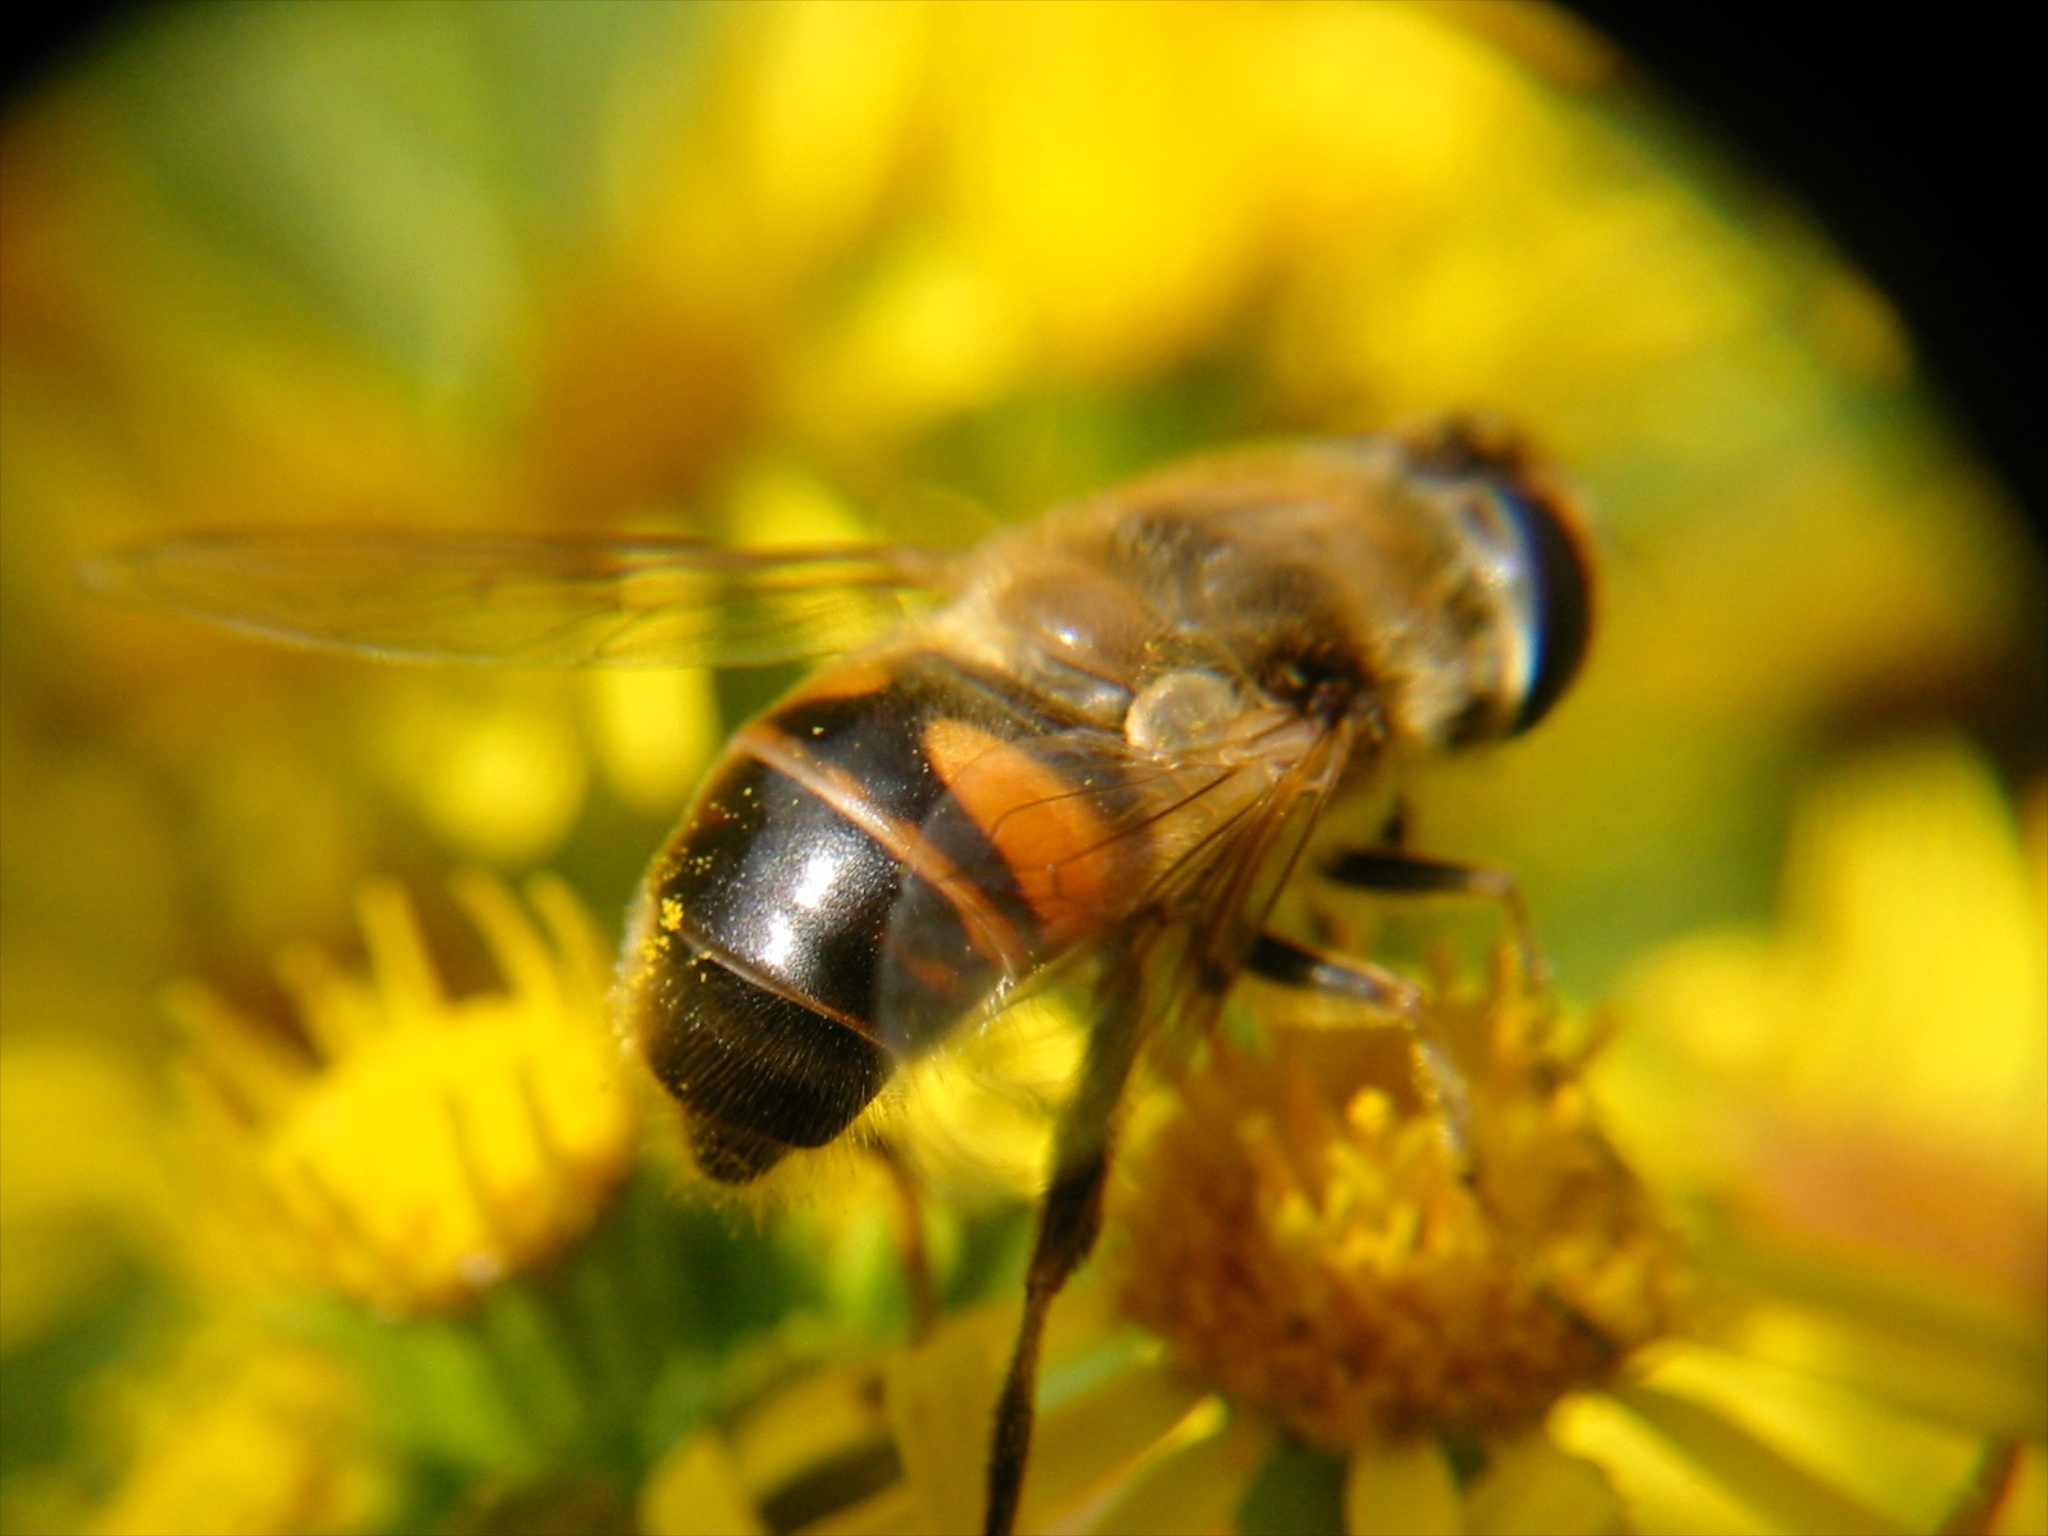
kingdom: Animalia
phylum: Arthropoda
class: Insecta
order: Diptera
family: Syrphidae
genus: Eristalis
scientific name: Eristalis tenax
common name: Drone fly
